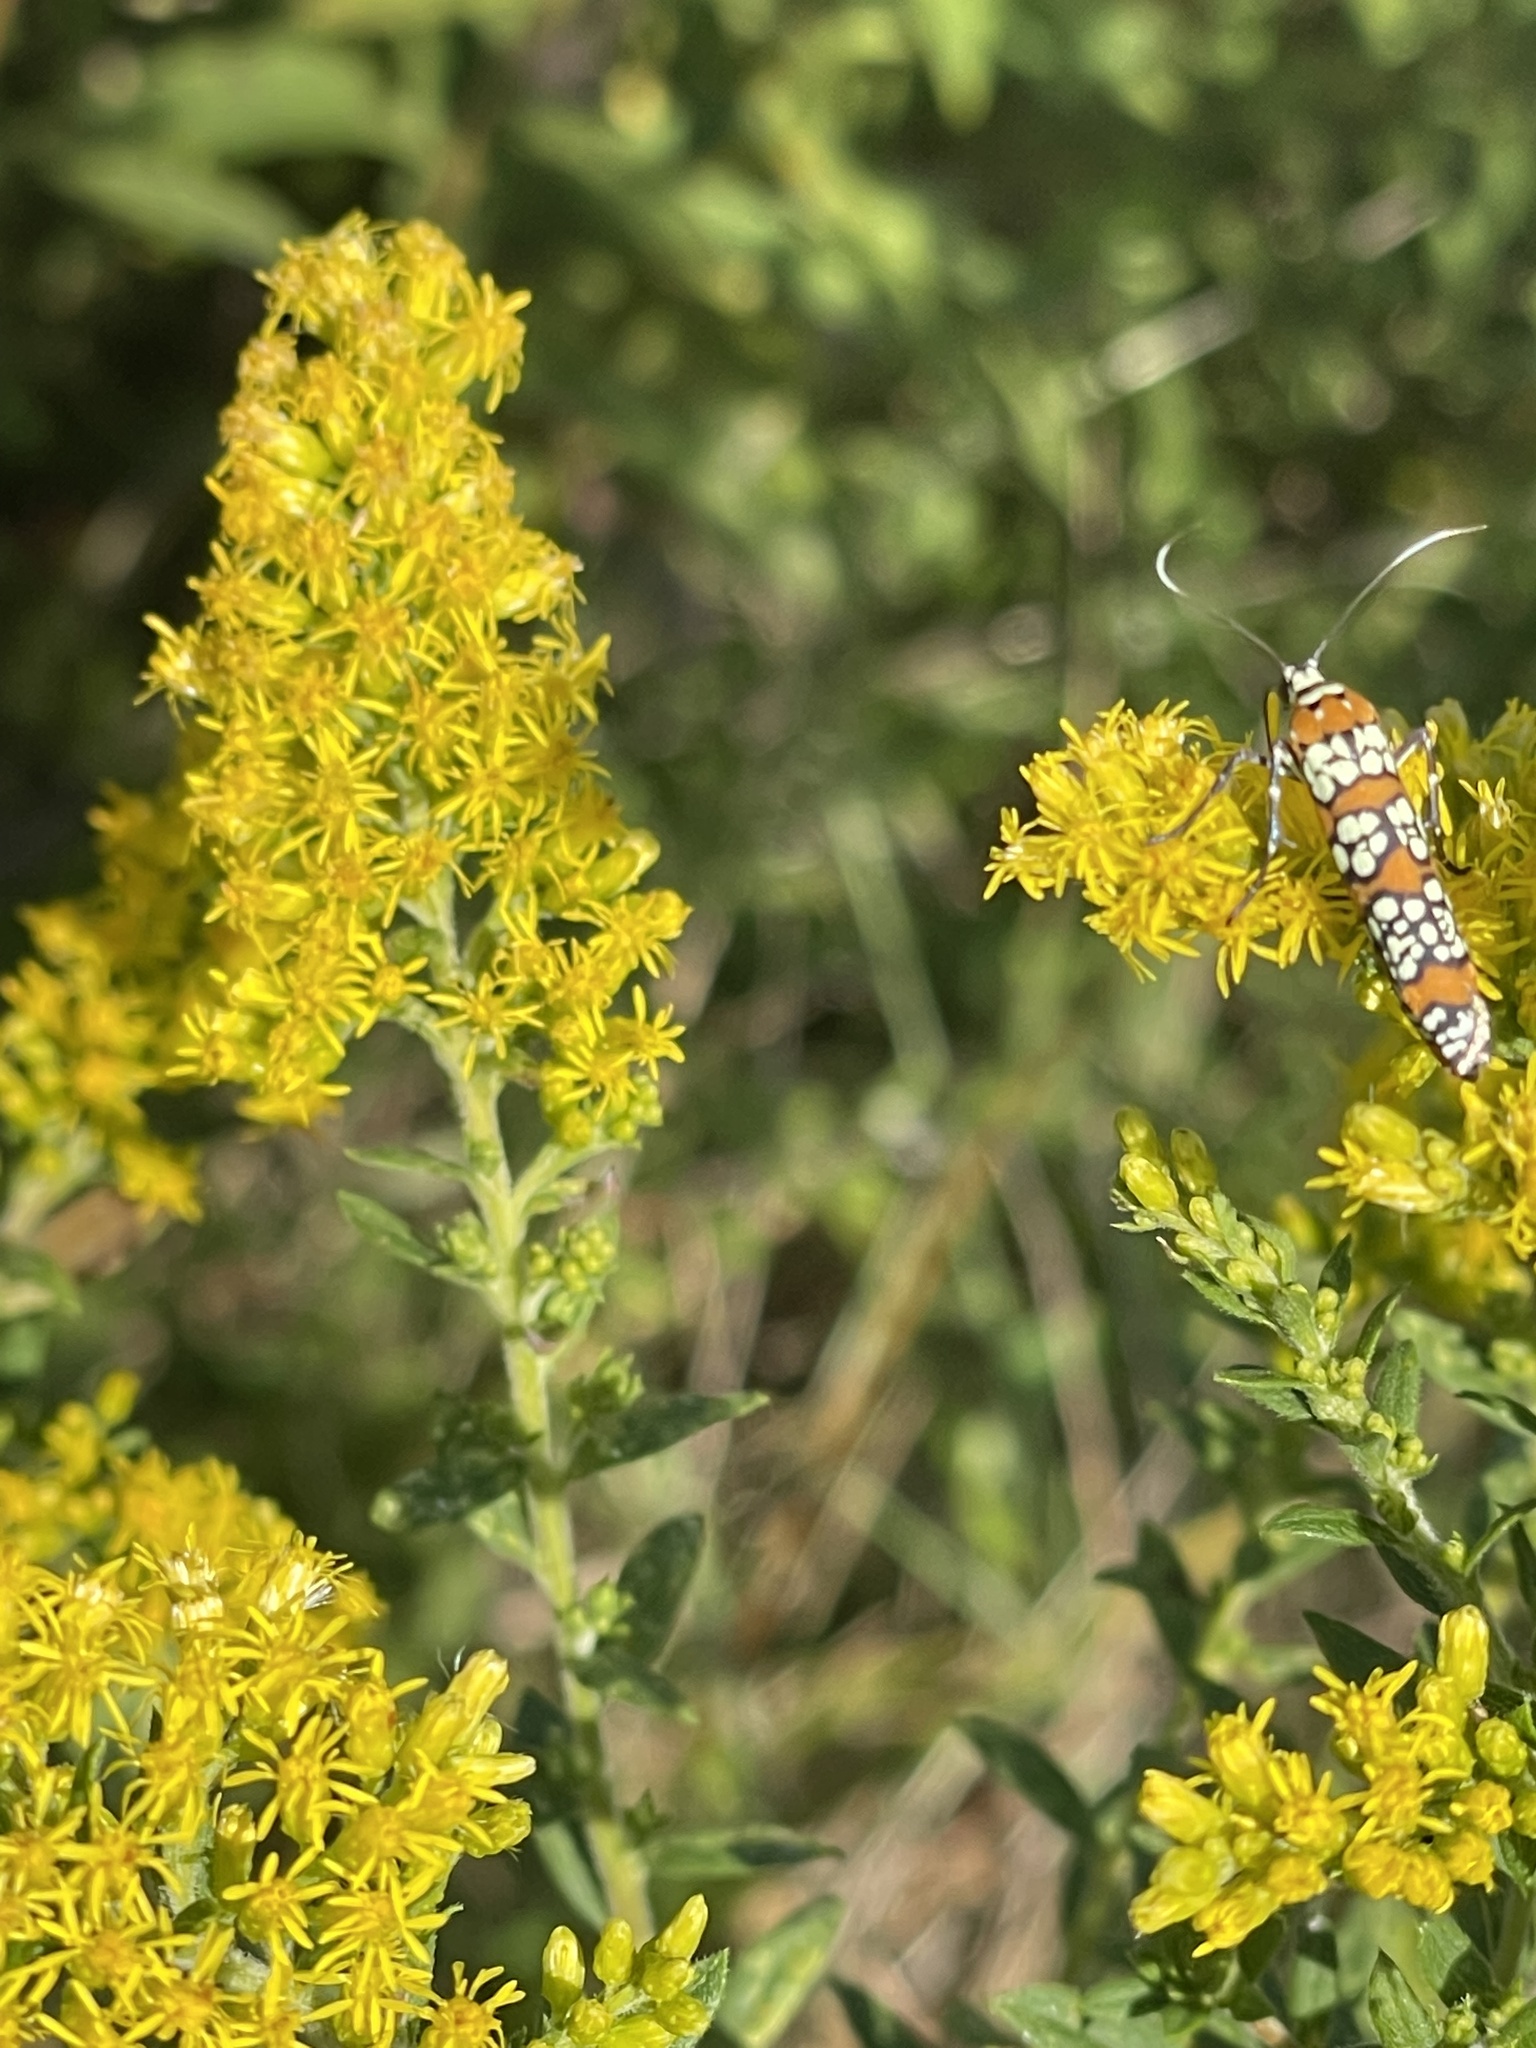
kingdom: Animalia
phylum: Arthropoda
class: Insecta
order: Lepidoptera
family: Attevidae
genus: Atteva
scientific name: Atteva punctella
